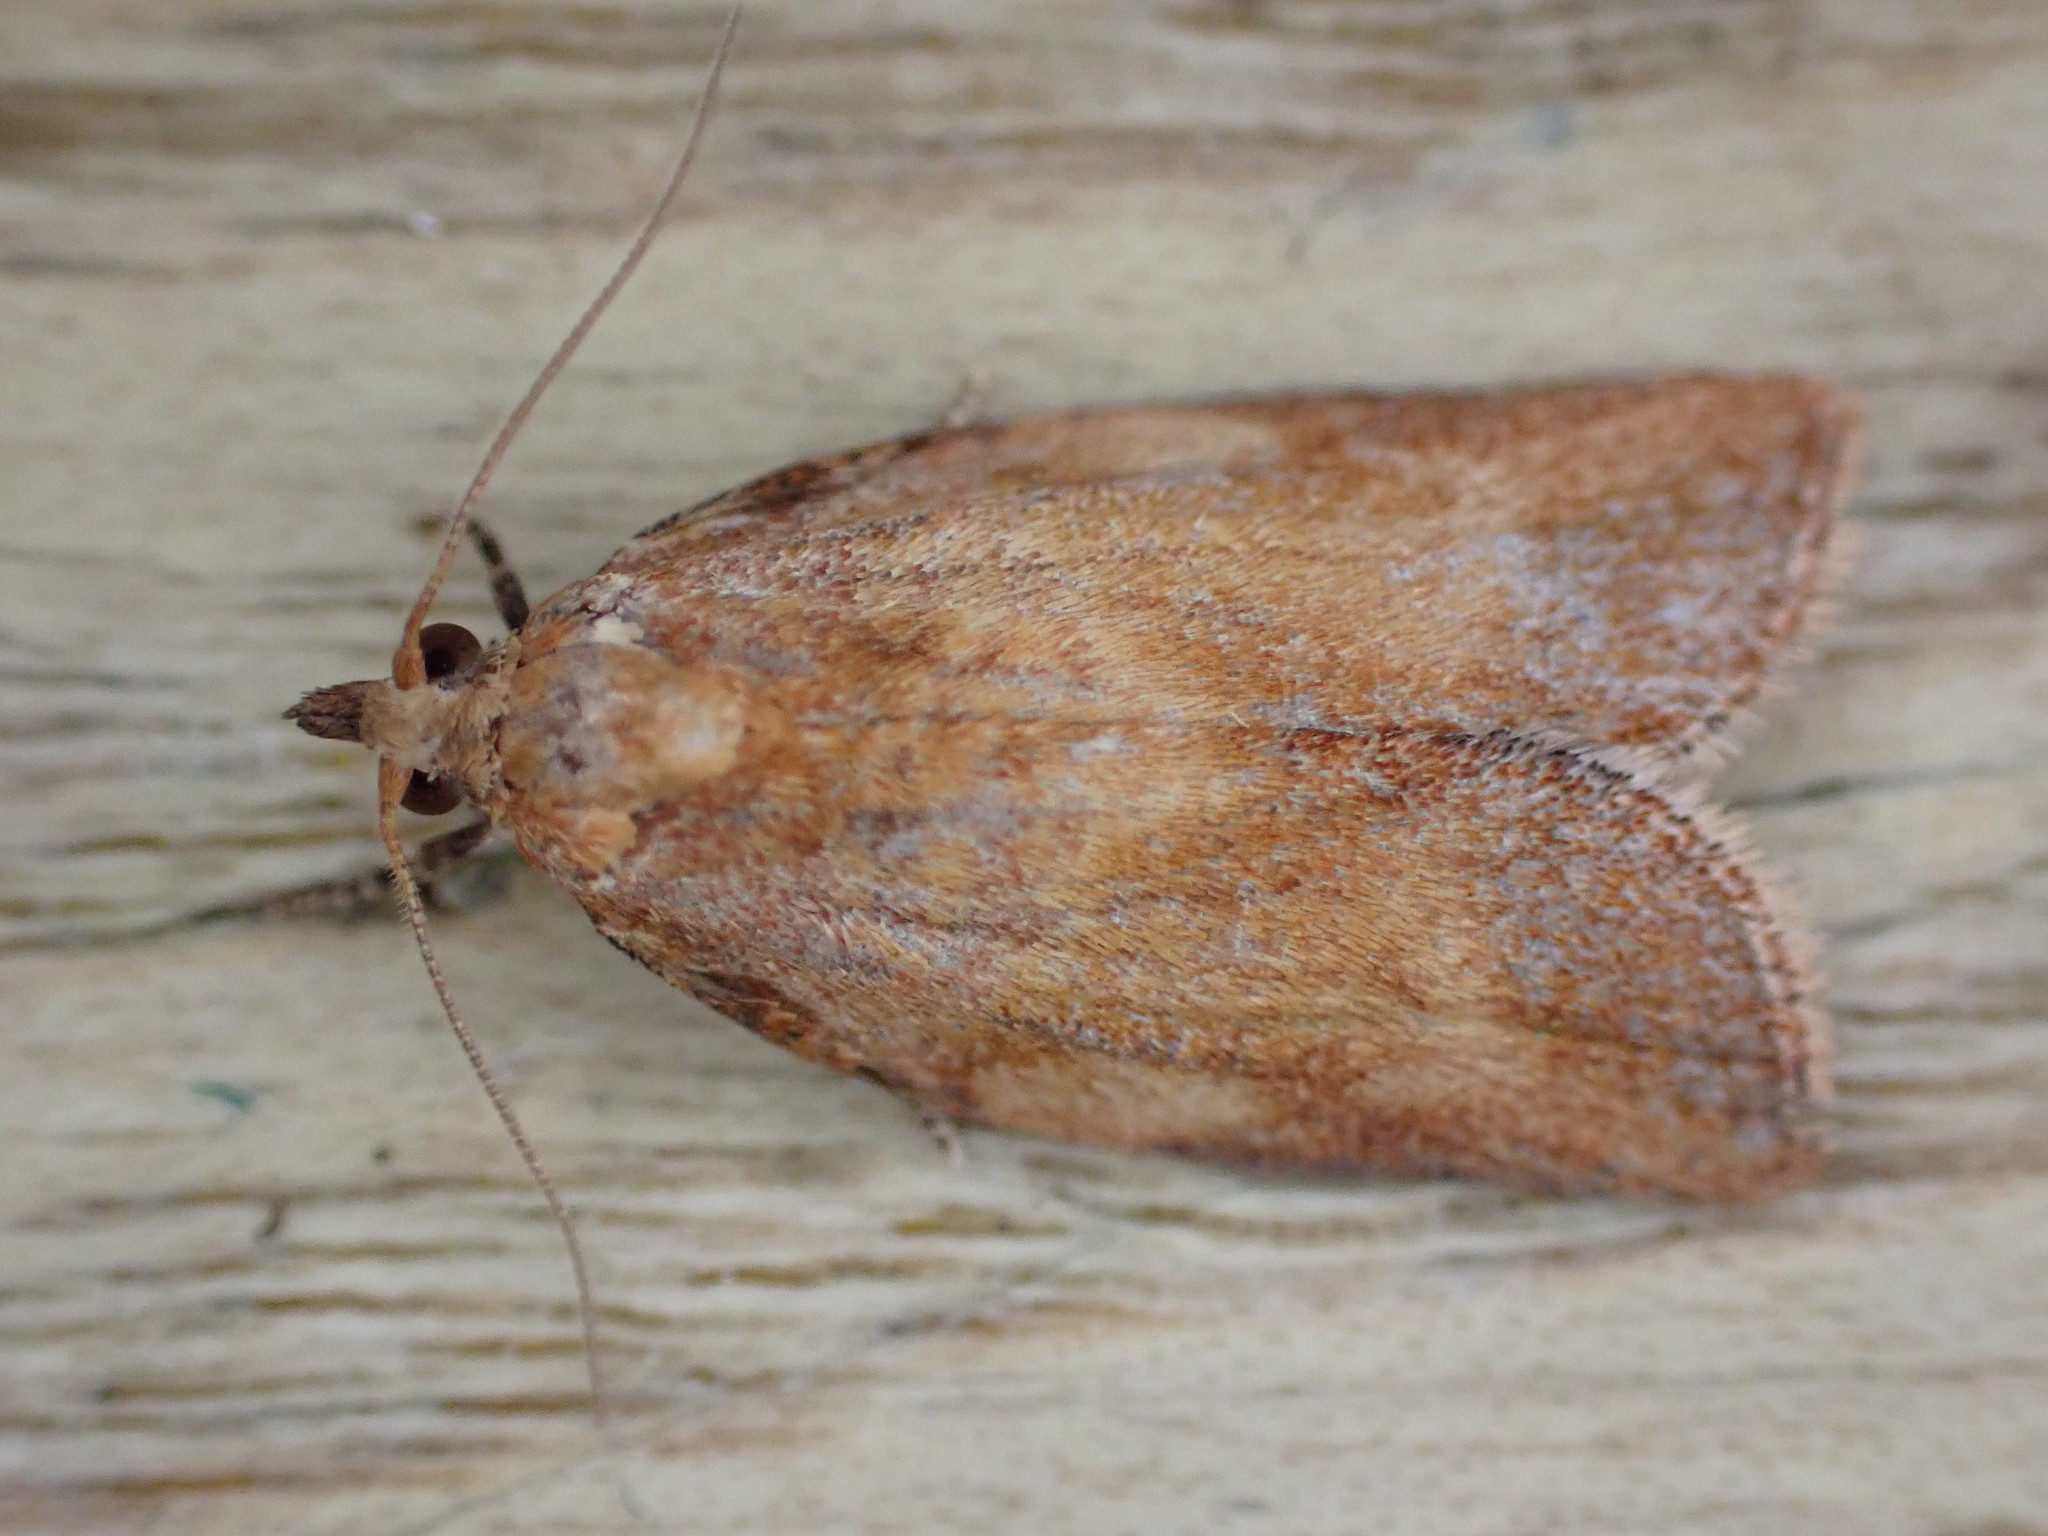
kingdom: Animalia
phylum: Arthropoda
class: Insecta
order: Lepidoptera
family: Tortricidae
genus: Epiphyas
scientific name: Epiphyas postvittana
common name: Light brown apple moth
